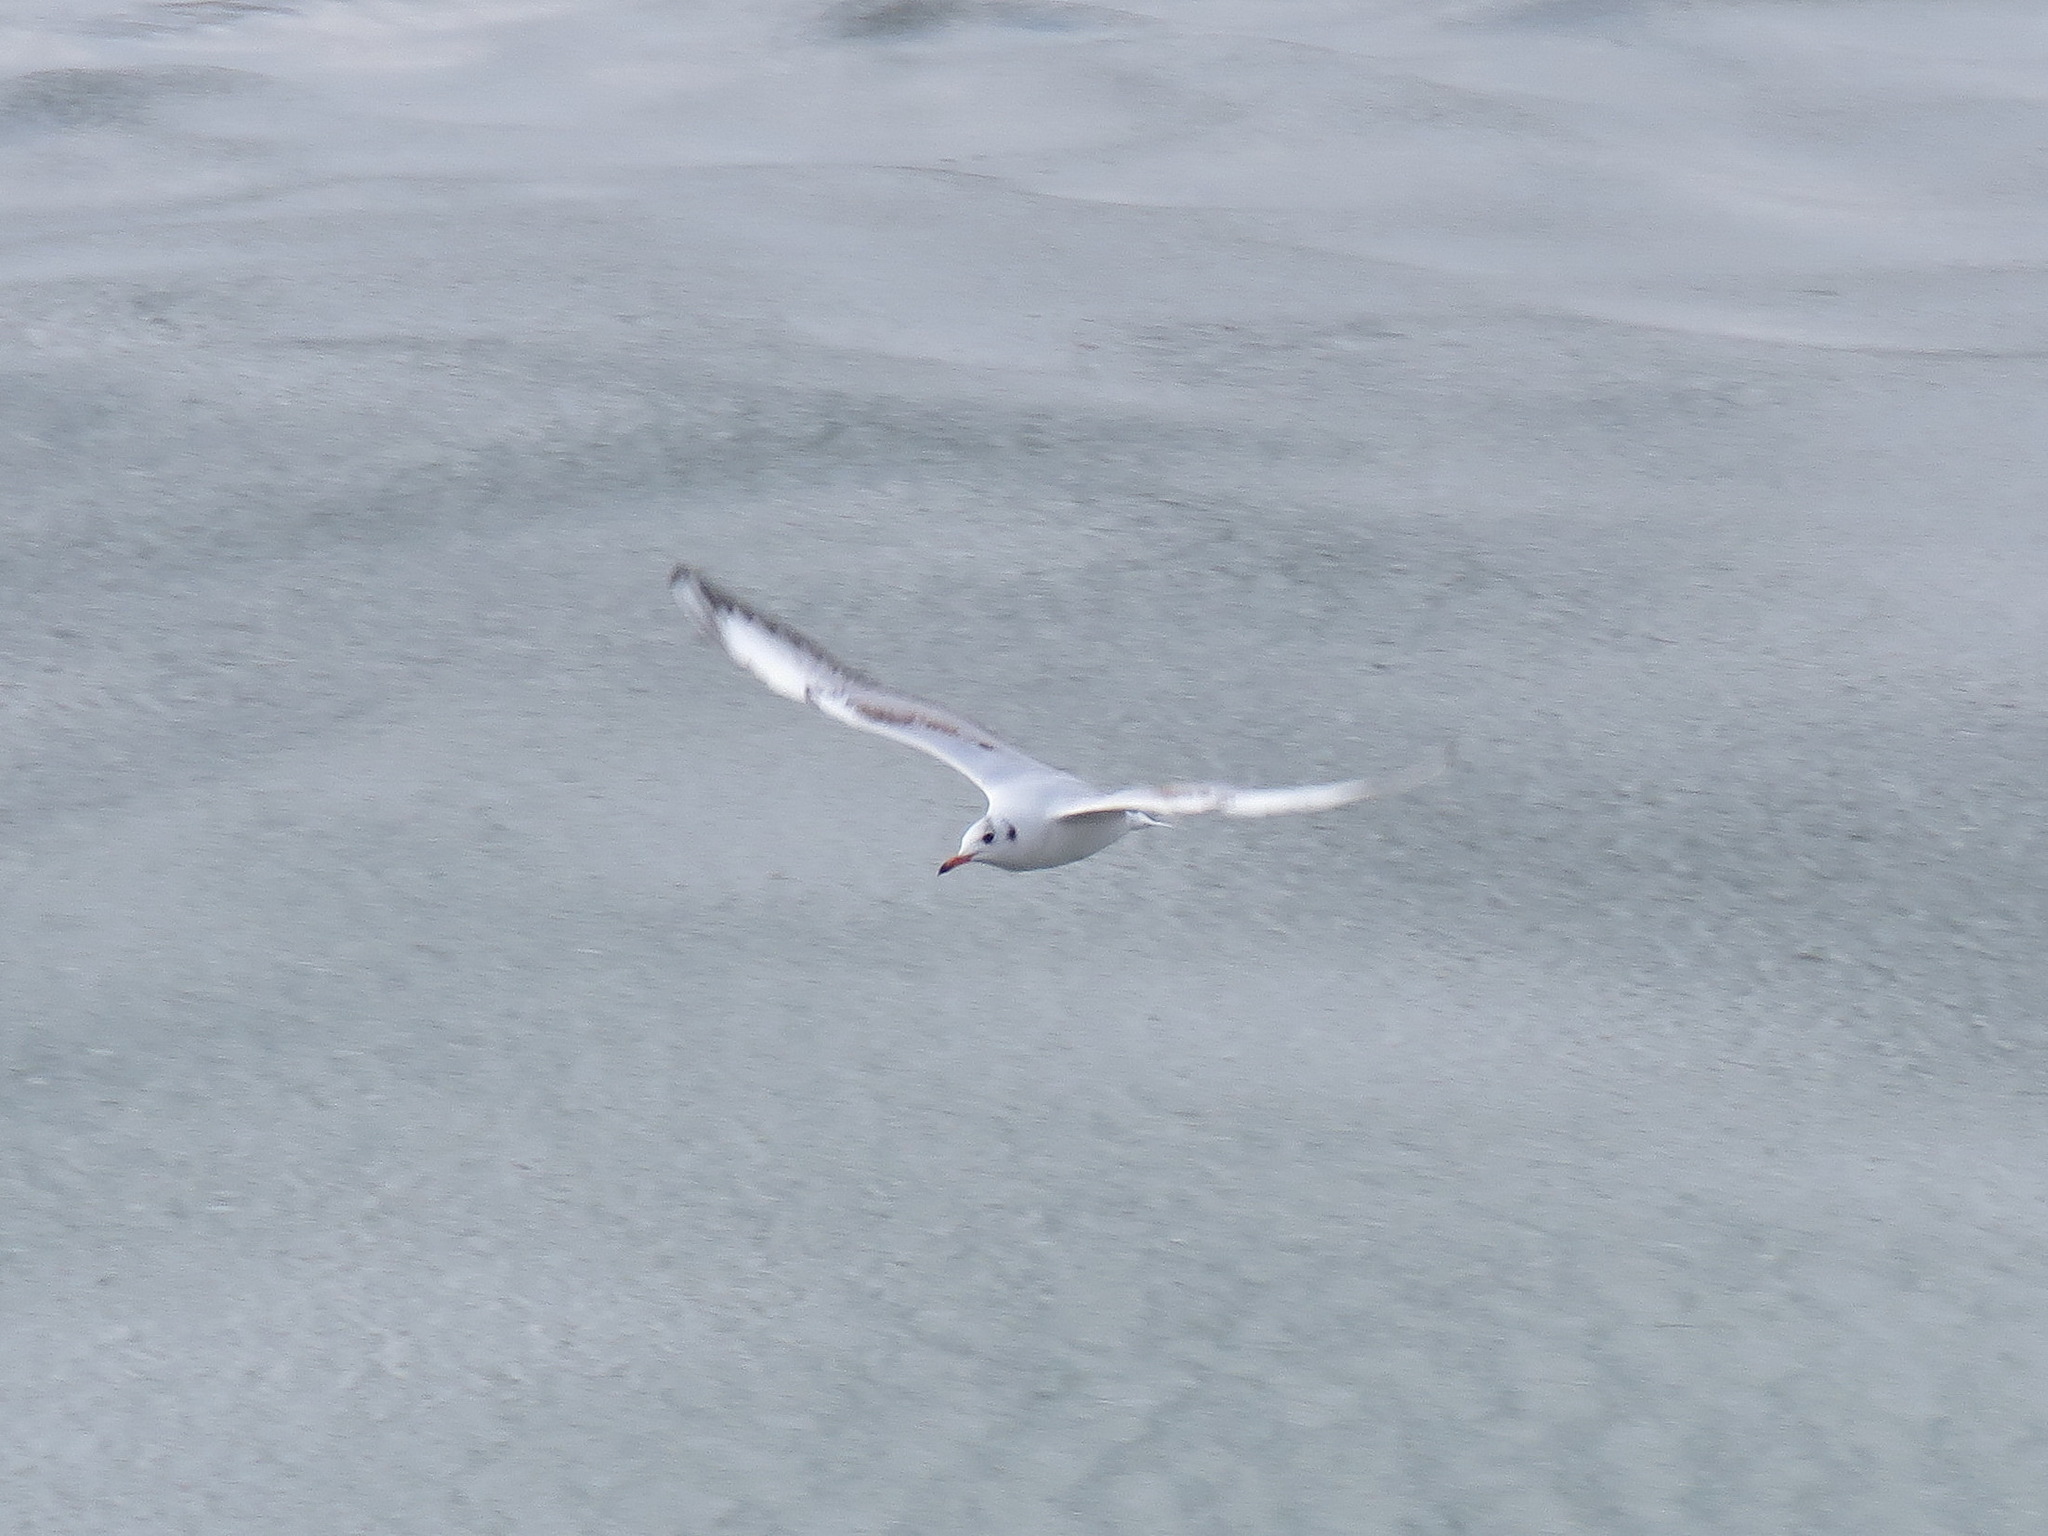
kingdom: Animalia
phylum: Chordata
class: Aves
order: Charadriiformes
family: Laridae
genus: Chroicocephalus
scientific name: Chroicocephalus ridibundus
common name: Black-headed gull
